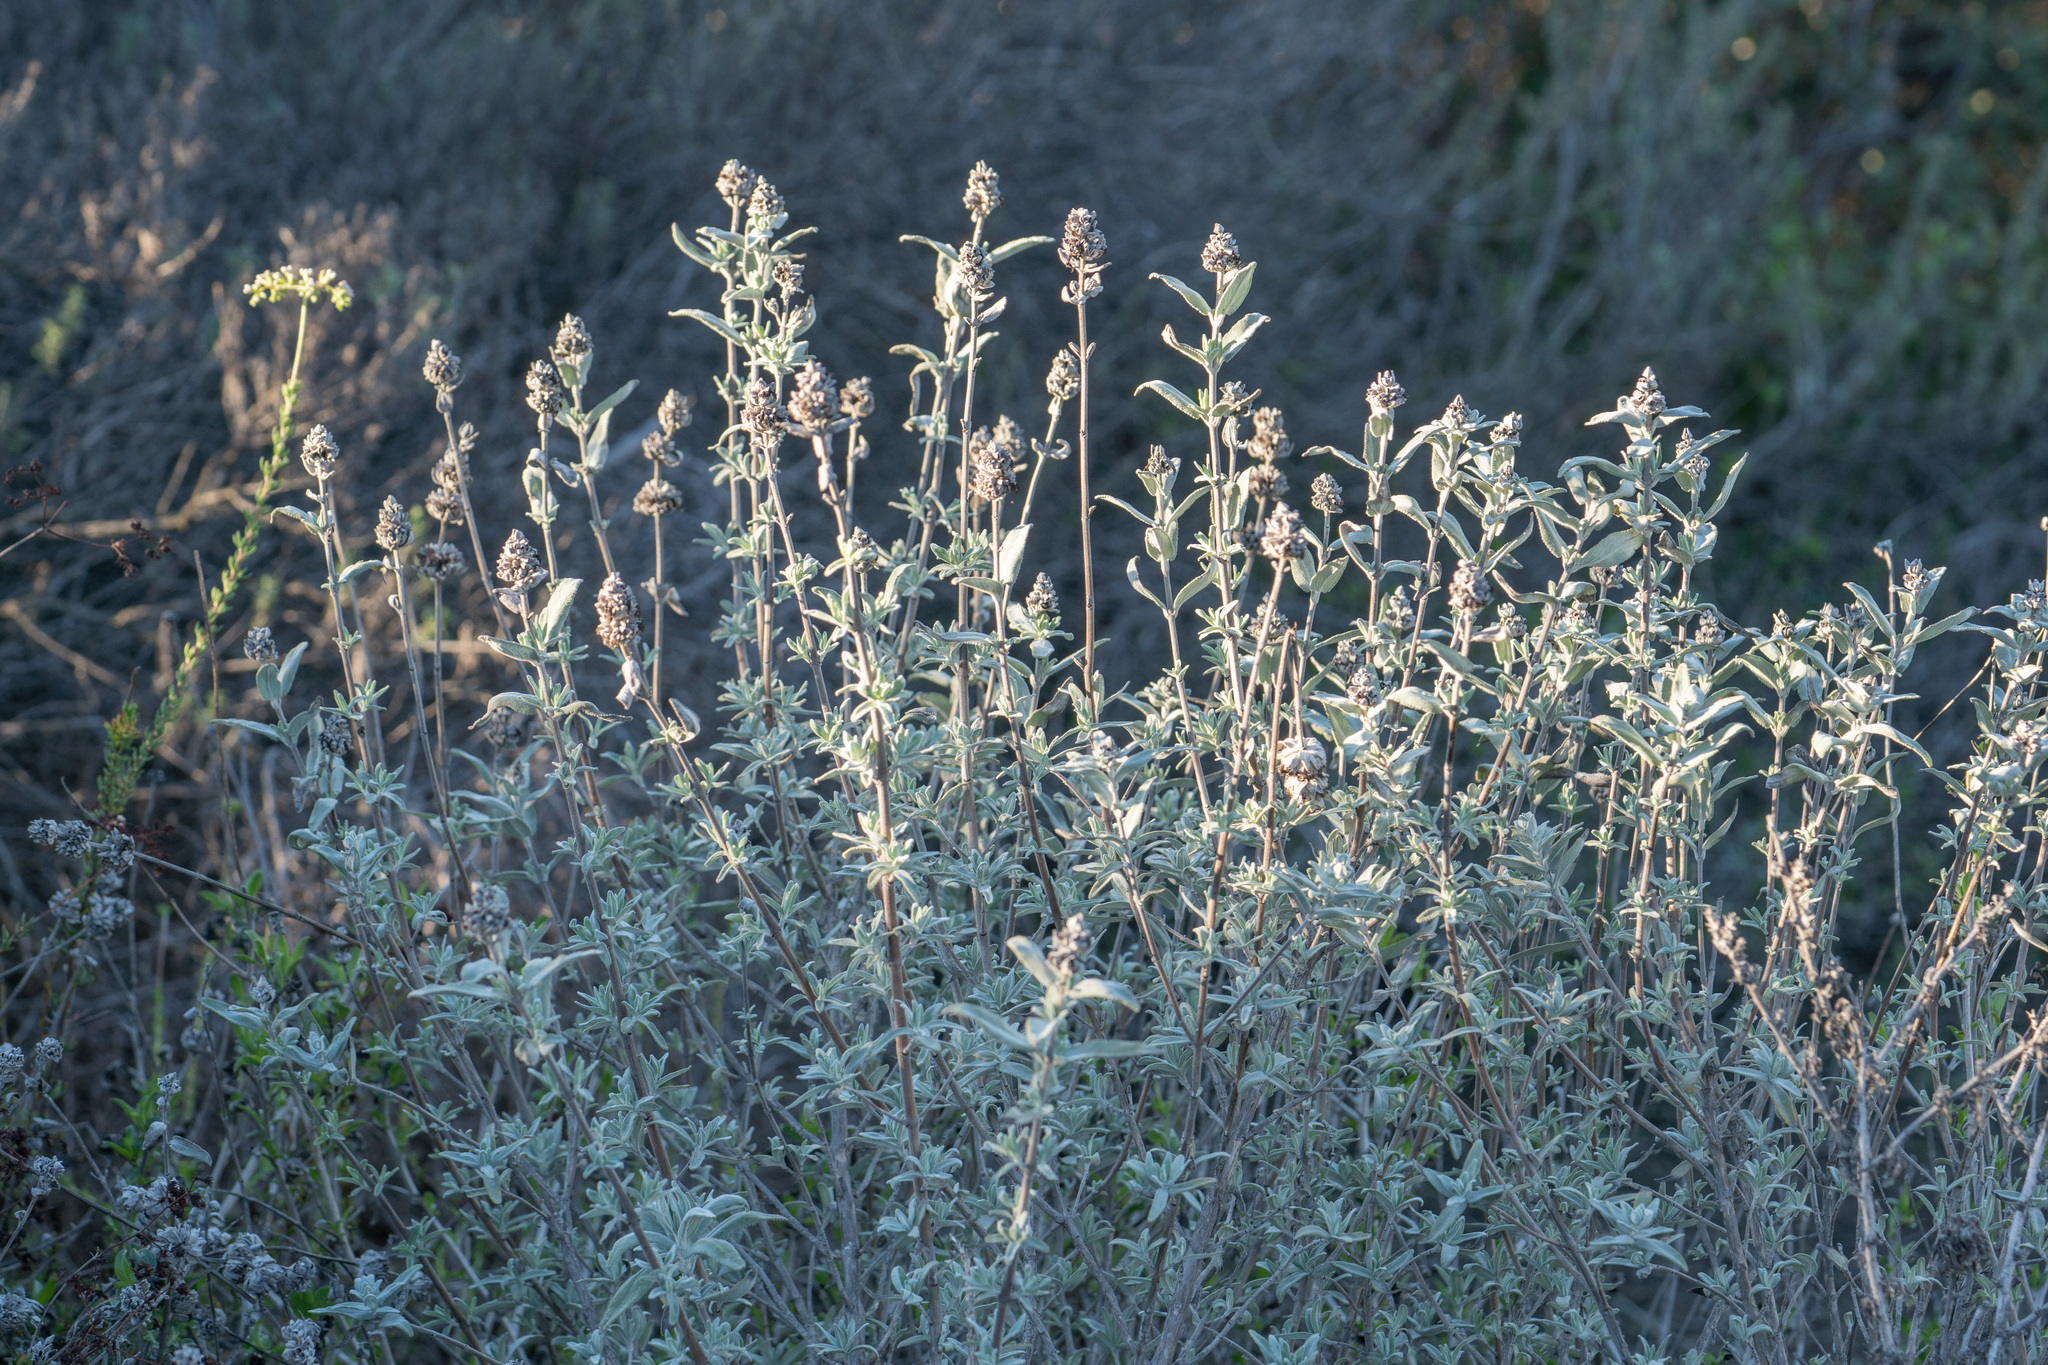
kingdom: Plantae
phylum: Tracheophyta
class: Magnoliopsida
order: Lamiales
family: Lamiaceae
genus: Salvia
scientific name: Salvia leucophylla
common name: Purple sage
